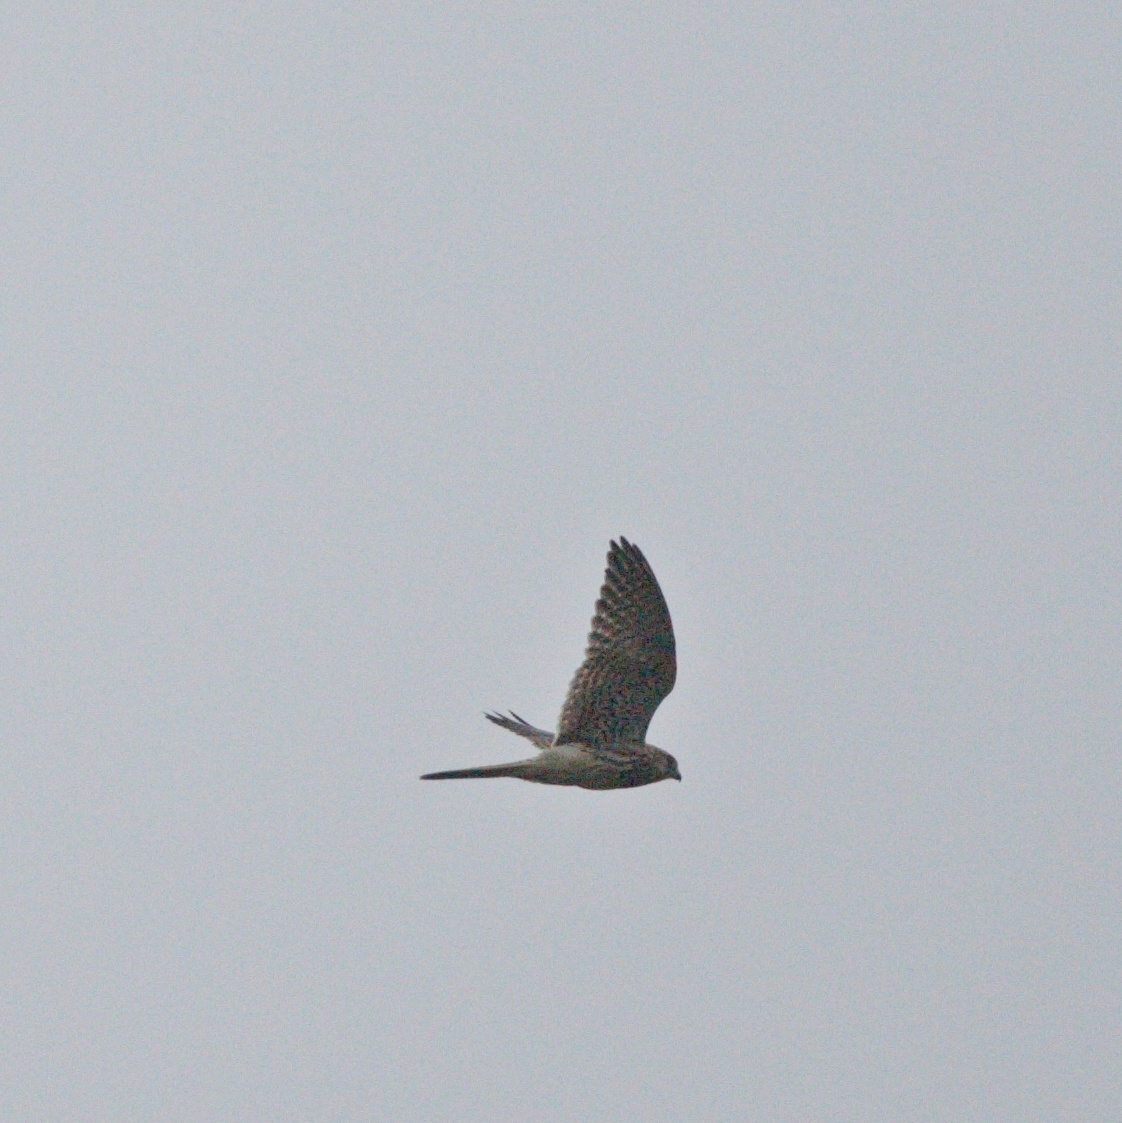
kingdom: Animalia
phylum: Chordata
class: Aves
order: Falconiformes
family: Falconidae
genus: Falco
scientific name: Falco tinnunculus
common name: Common kestrel
